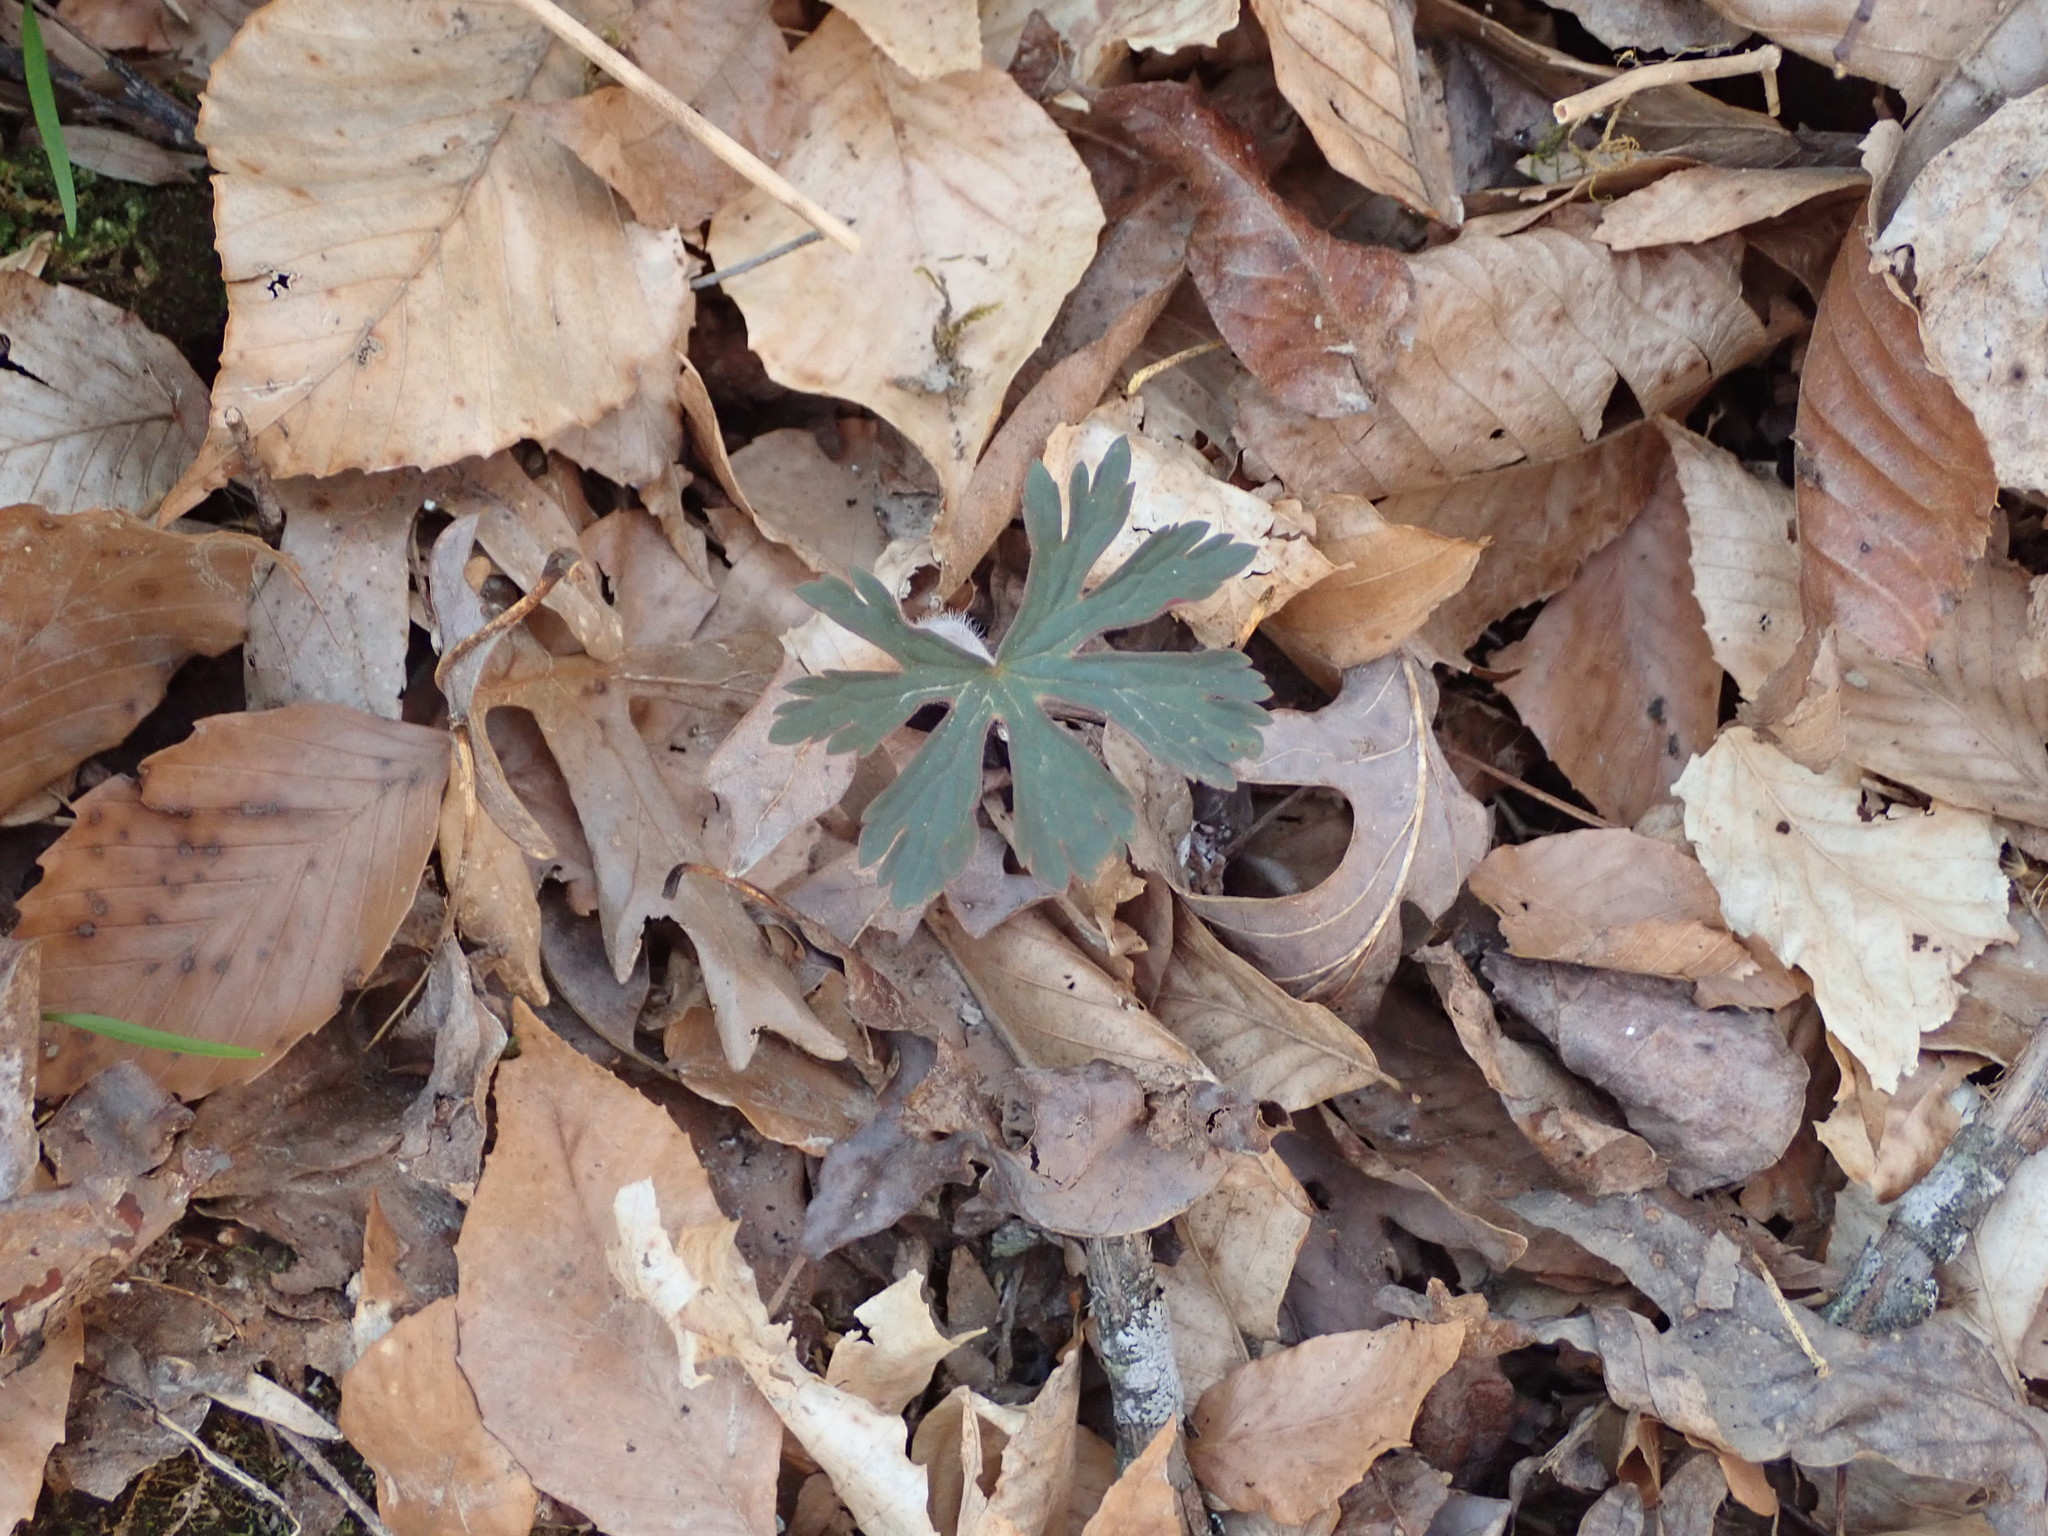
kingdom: Plantae
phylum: Tracheophyta
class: Magnoliopsida
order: Geraniales
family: Geraniaceae
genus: Geranium
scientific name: Geranium maculatum
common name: Spotted geranium
